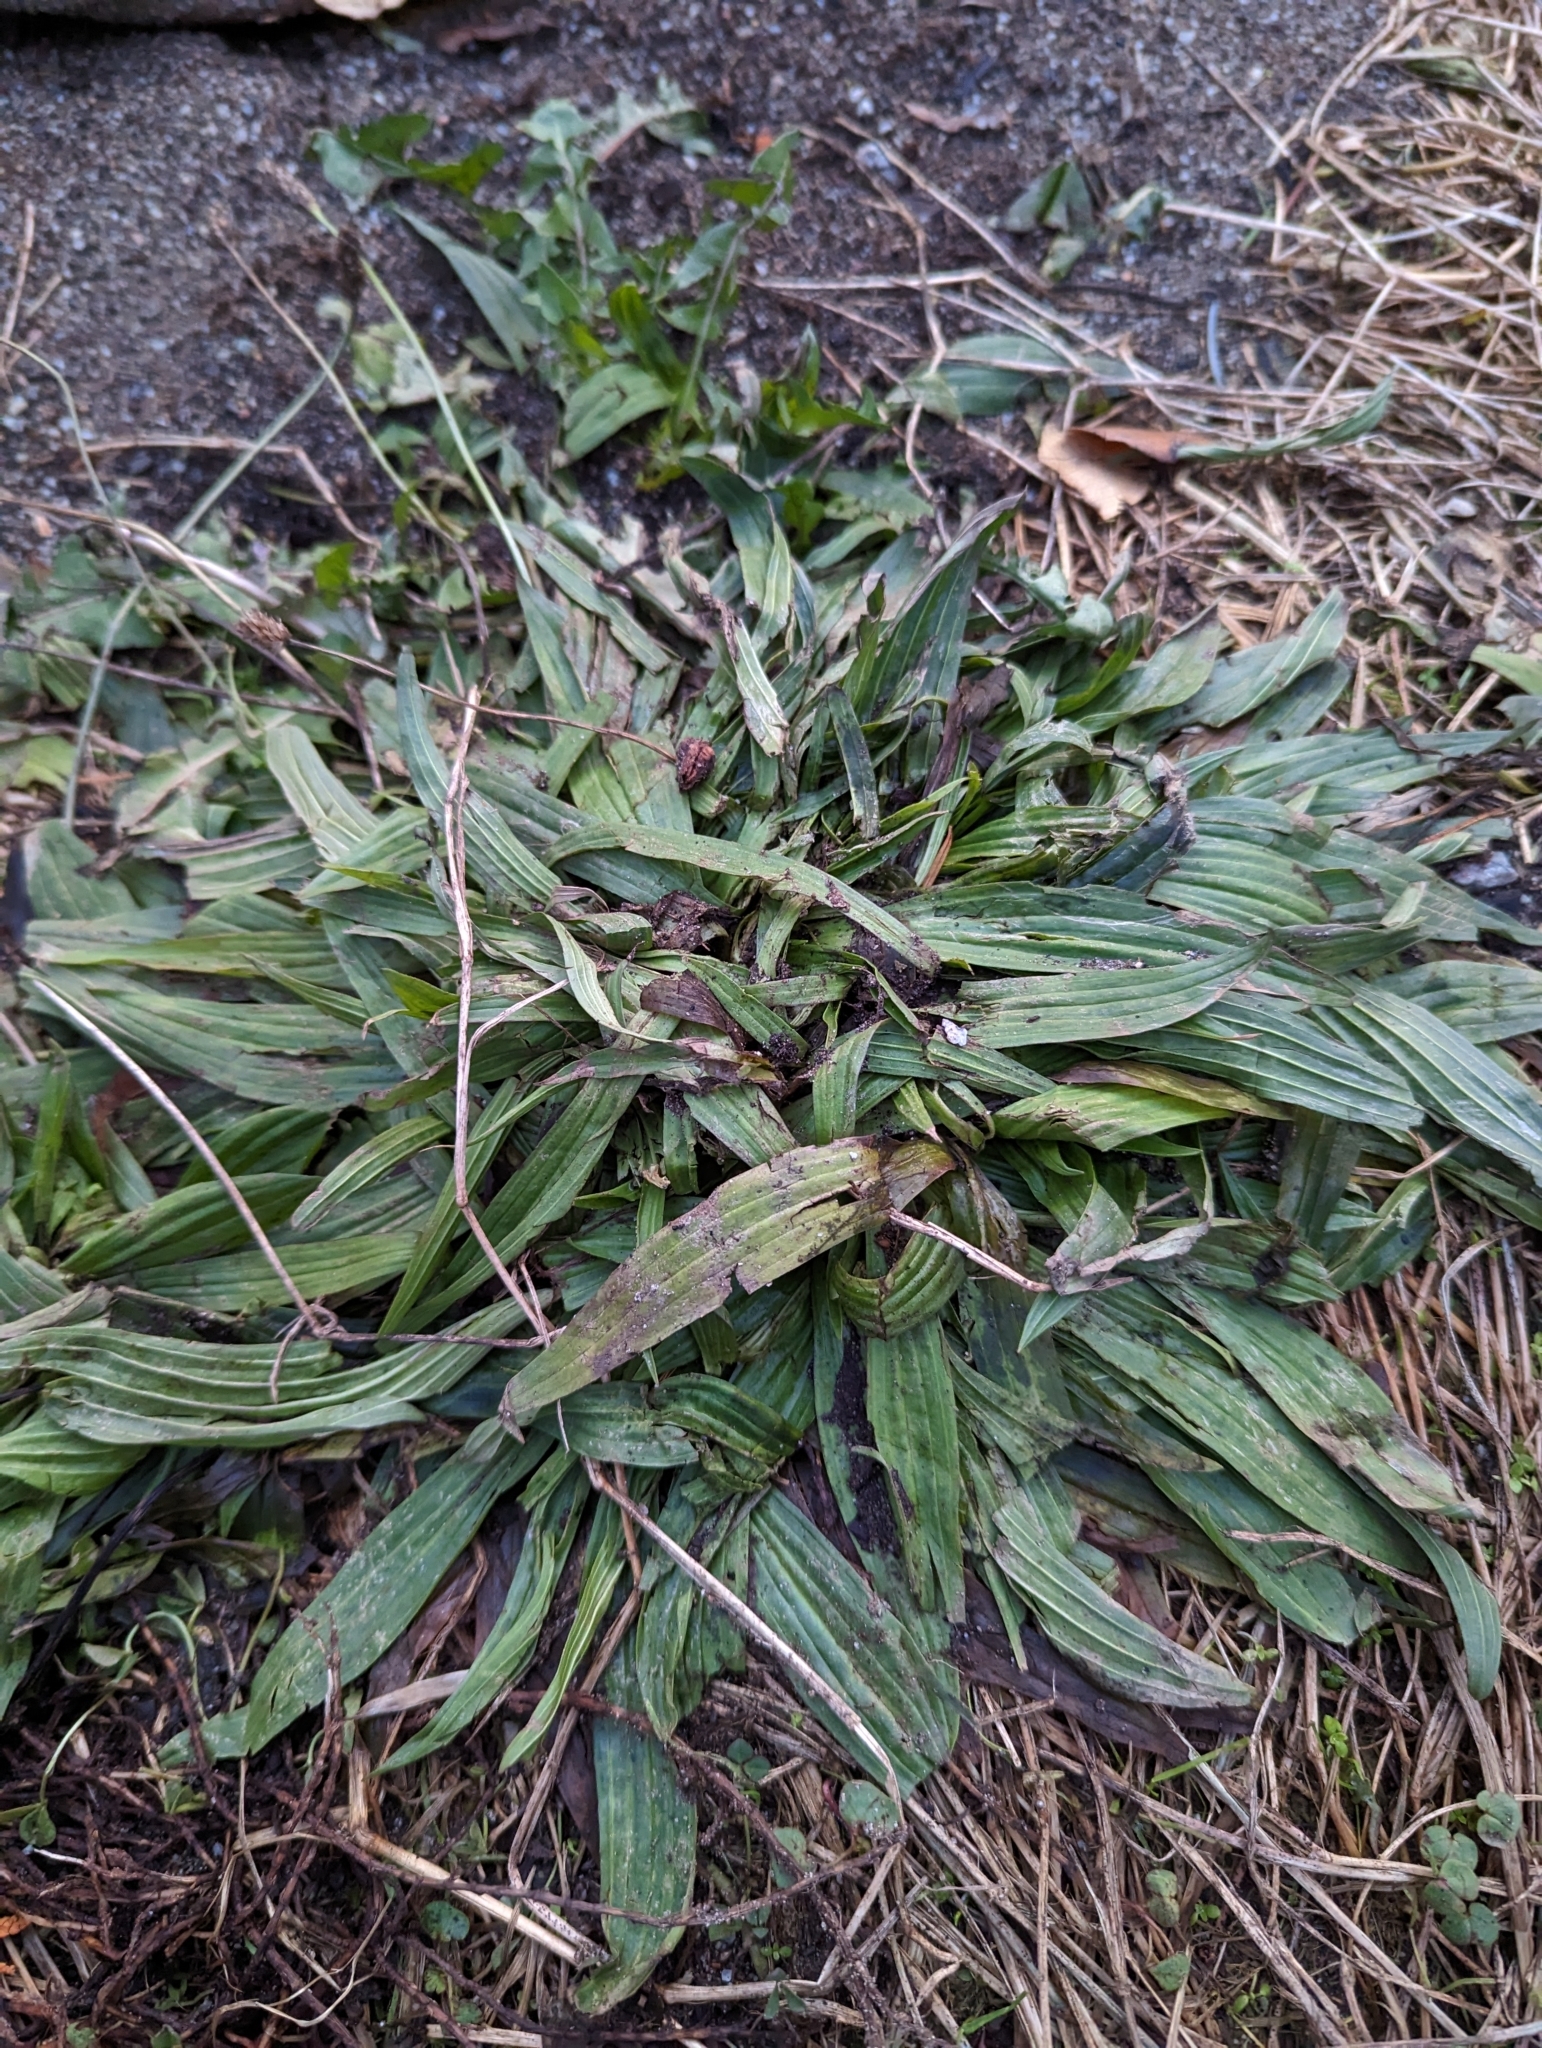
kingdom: Plantae
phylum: Tracheophyta
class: Magnoliopsida
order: Lamiales
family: Plantaginaceae
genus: Plantago
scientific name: Plantago lanceolata
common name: Ribwort plantain
